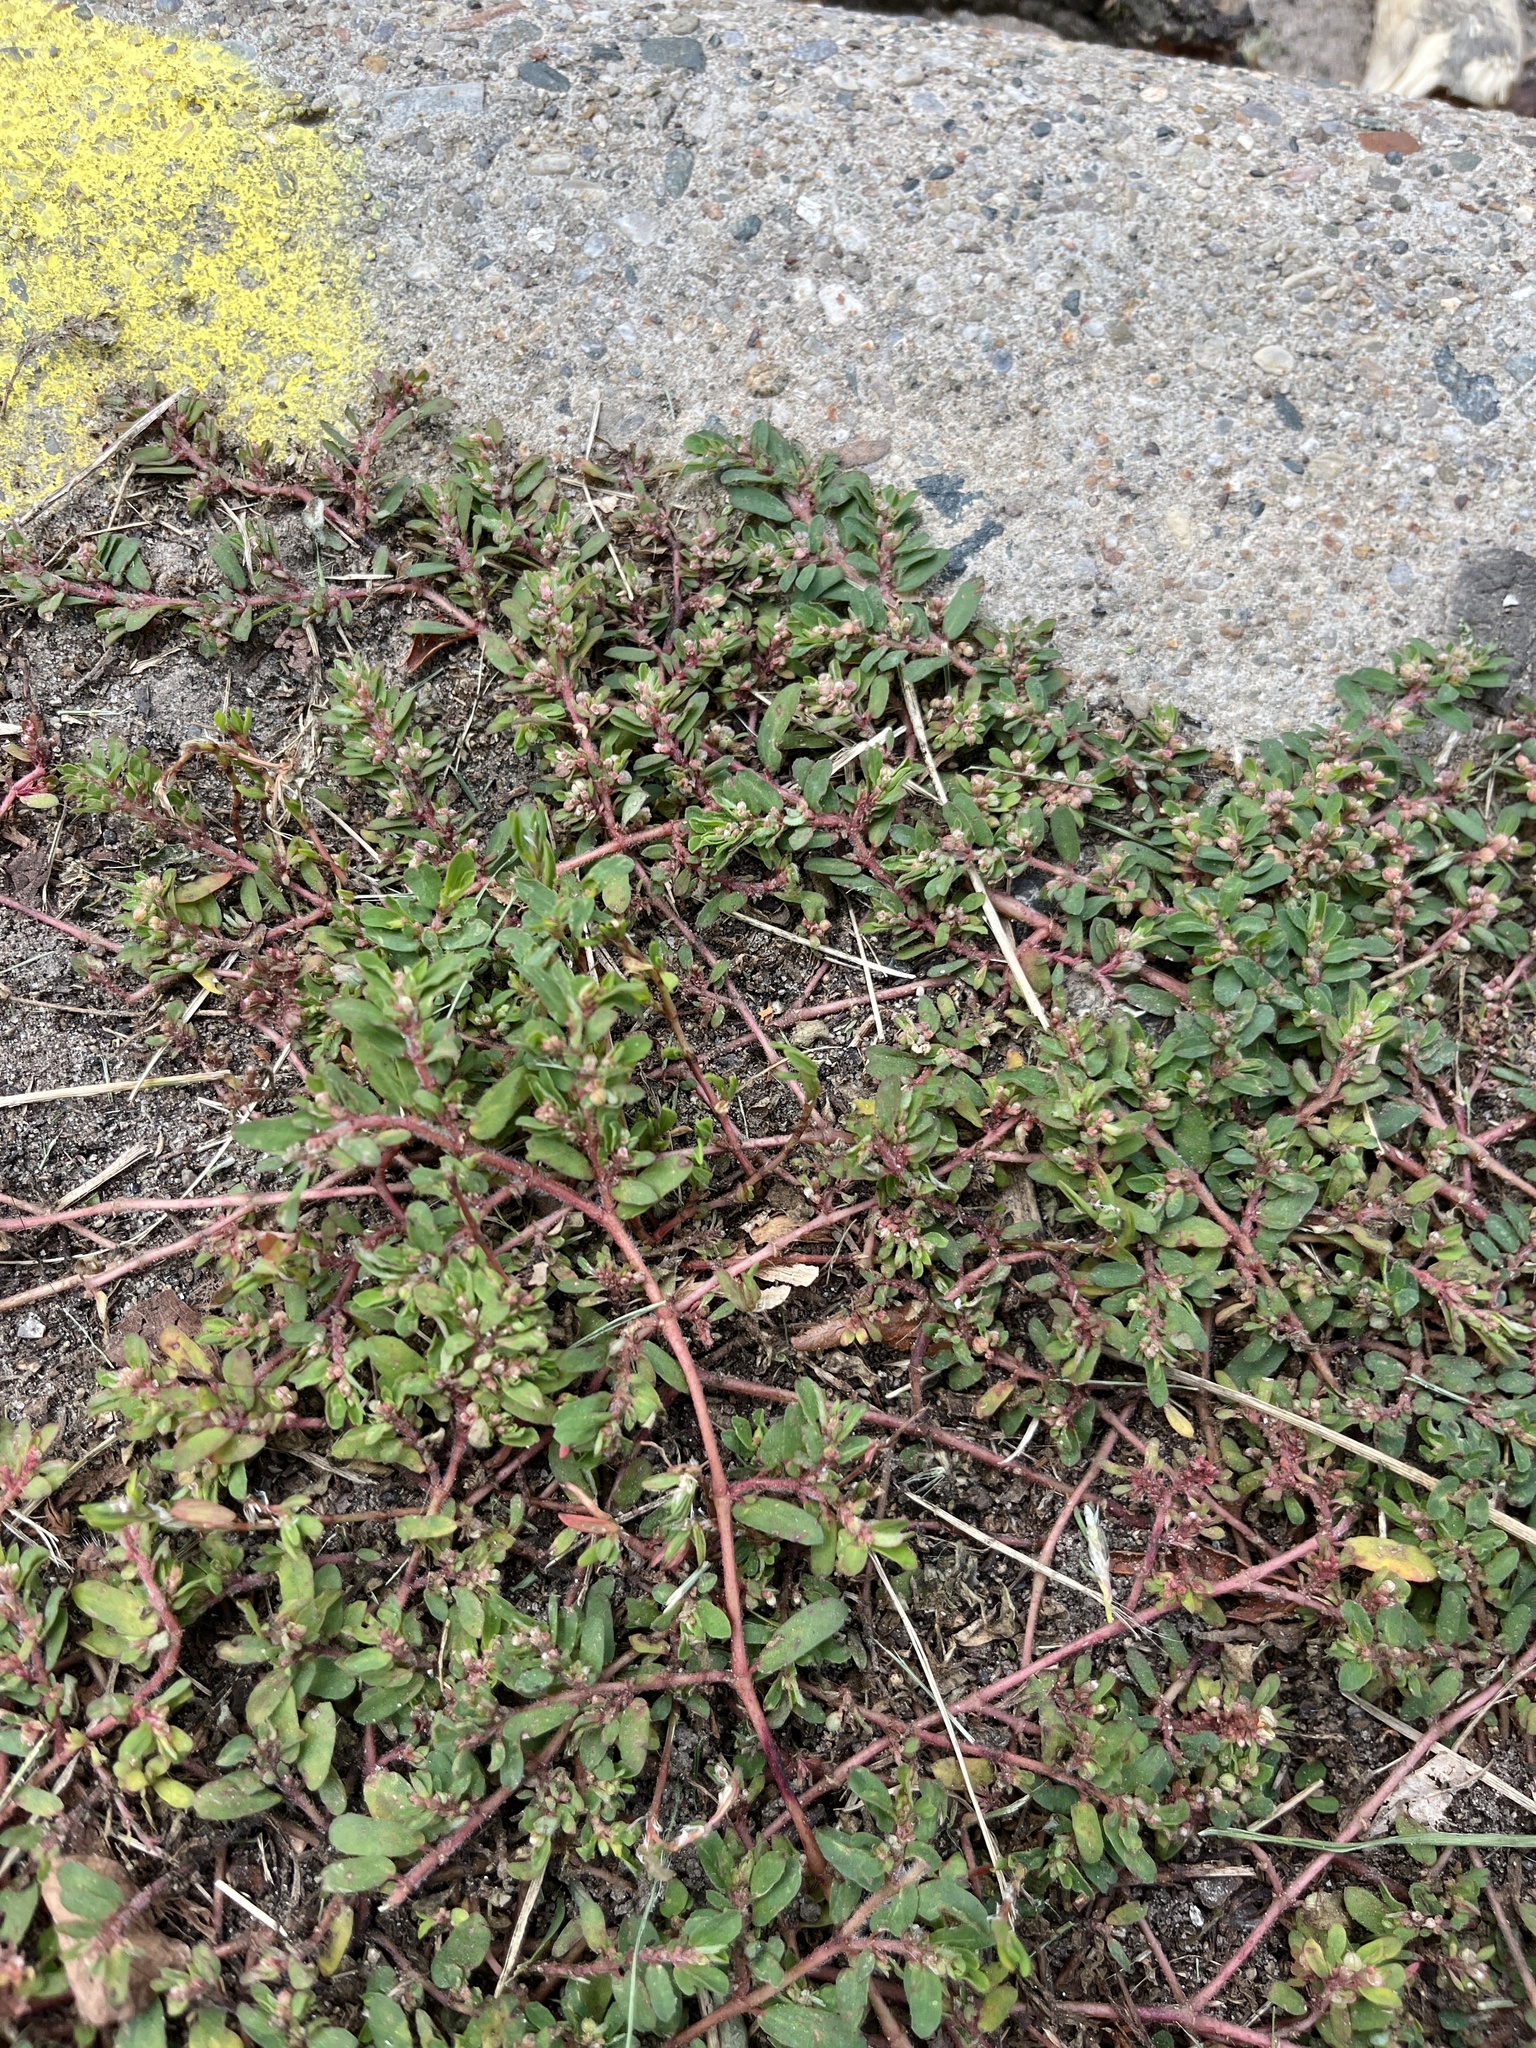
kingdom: Plantae
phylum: Tracheophyta
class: Magnoliopsida
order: Malpighiales
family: Euphorbiaceae
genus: Euphorbia
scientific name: Euphorbia maculata
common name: Spotted spurge
